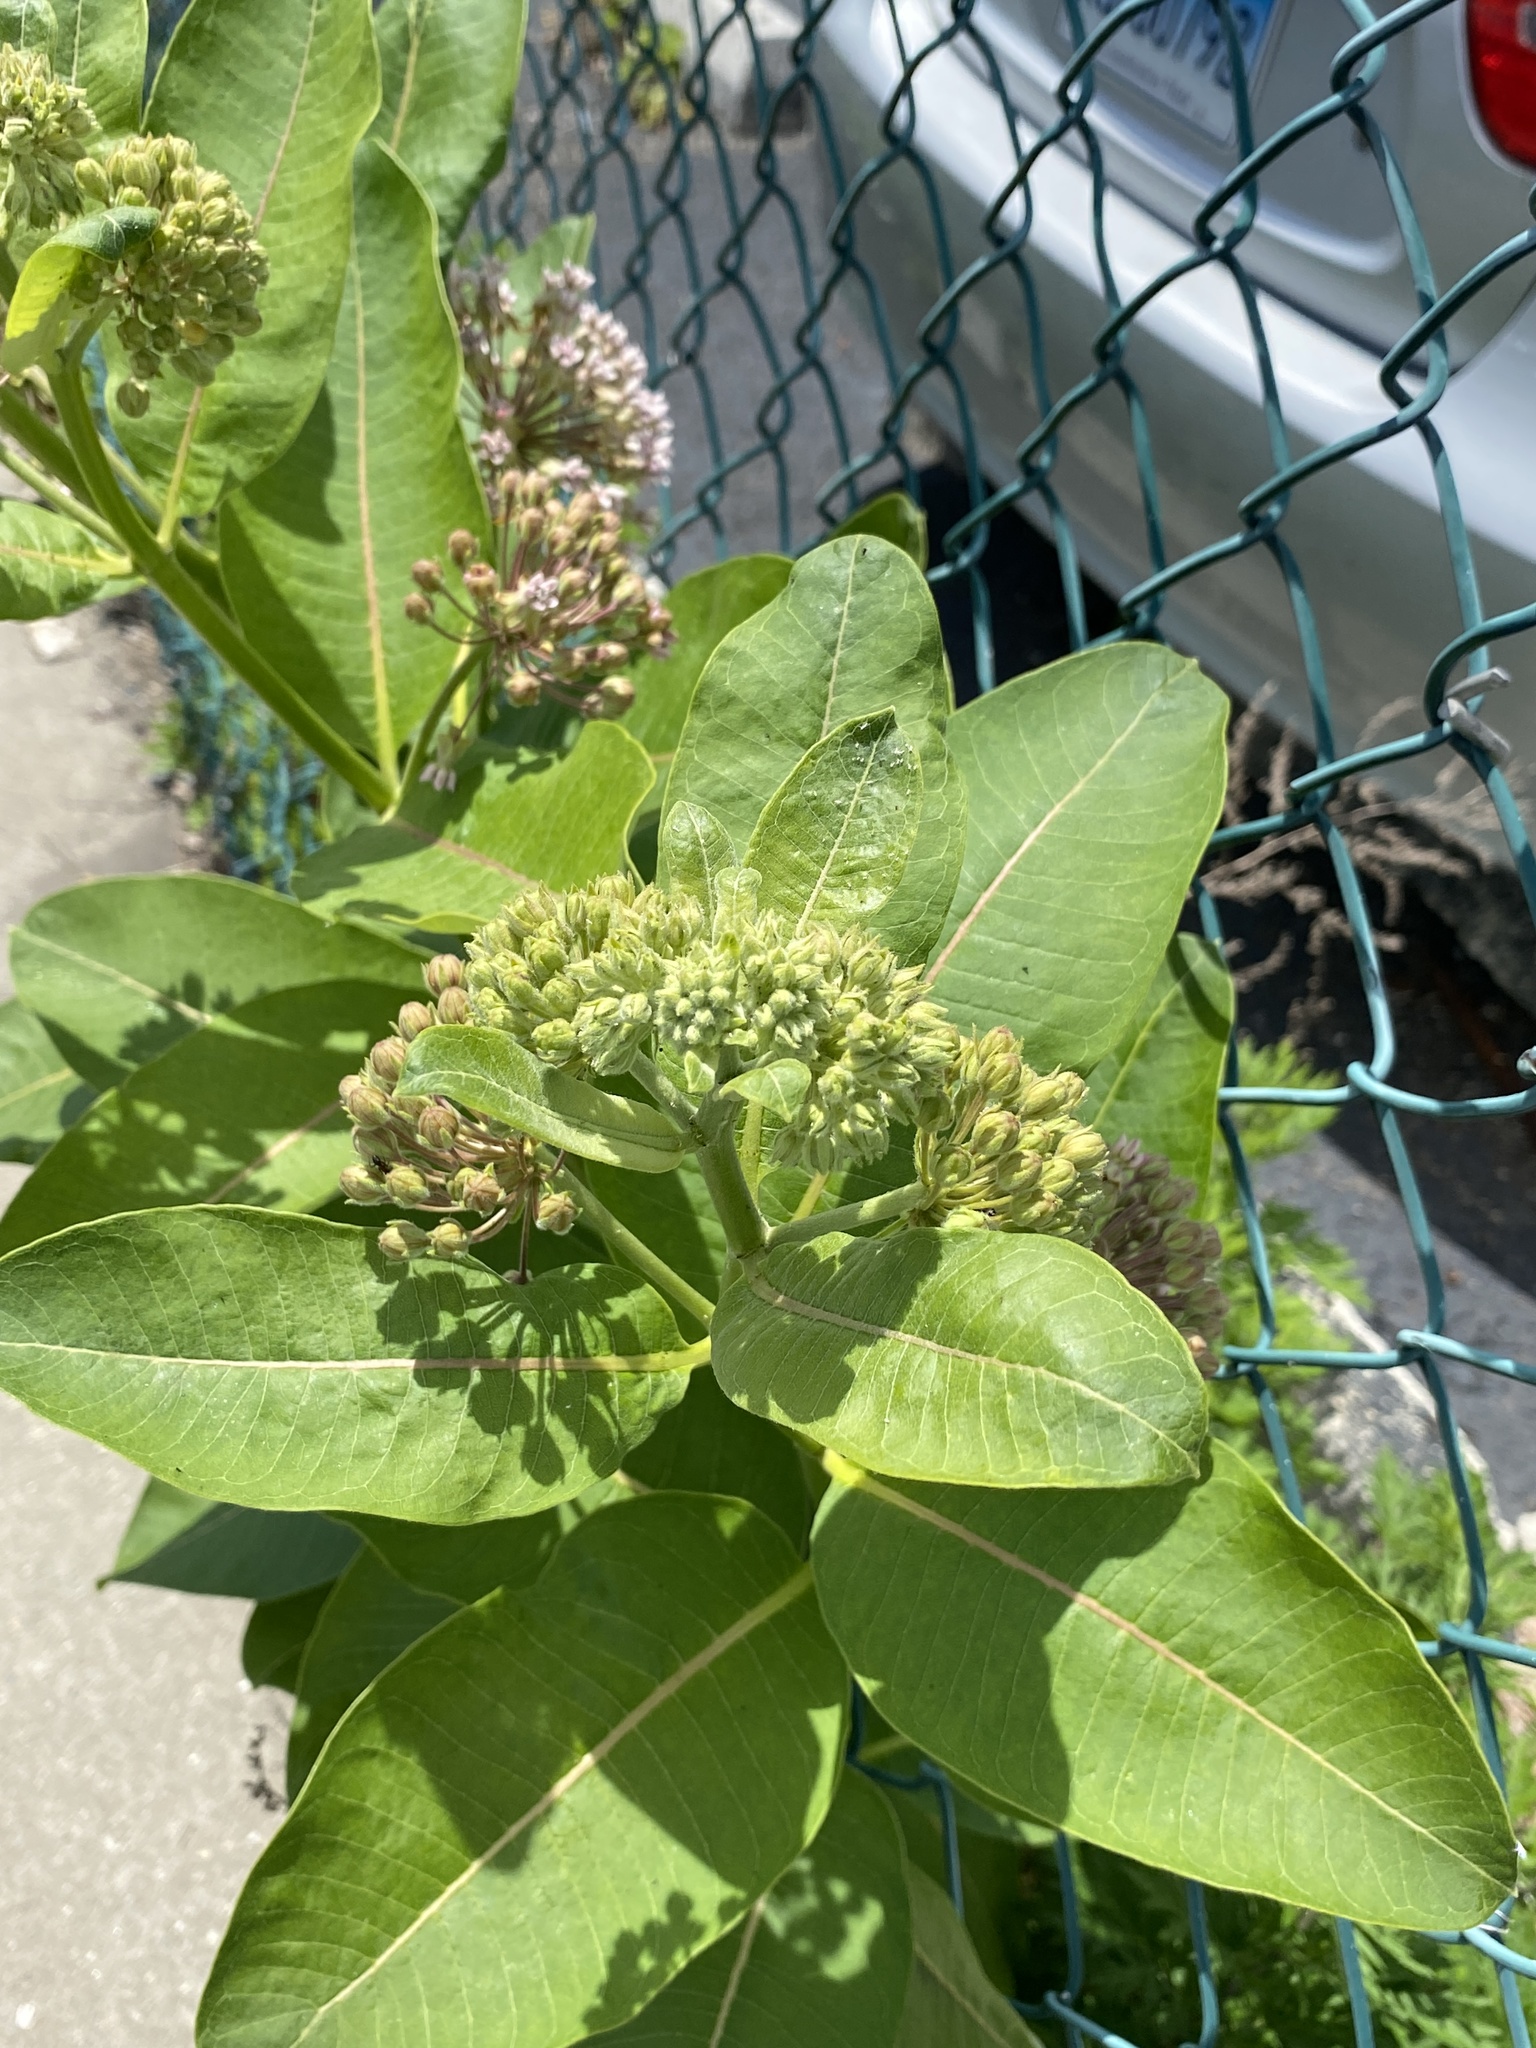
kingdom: Plantae
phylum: Tracheophyta
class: Magnoliopsida
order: Gentianales
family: Apocynaceae
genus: Asclepias
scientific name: Asclepias syriaca
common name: Common milkweed
